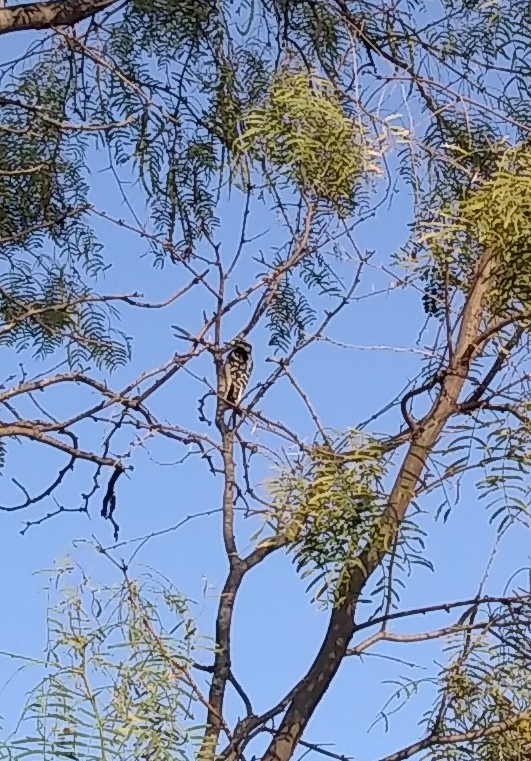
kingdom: Animalia
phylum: Chordata
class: Aves
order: Piciformes
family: Picidae
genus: Dryobates
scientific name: Dryobates pubescens
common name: Downy woodpecker
